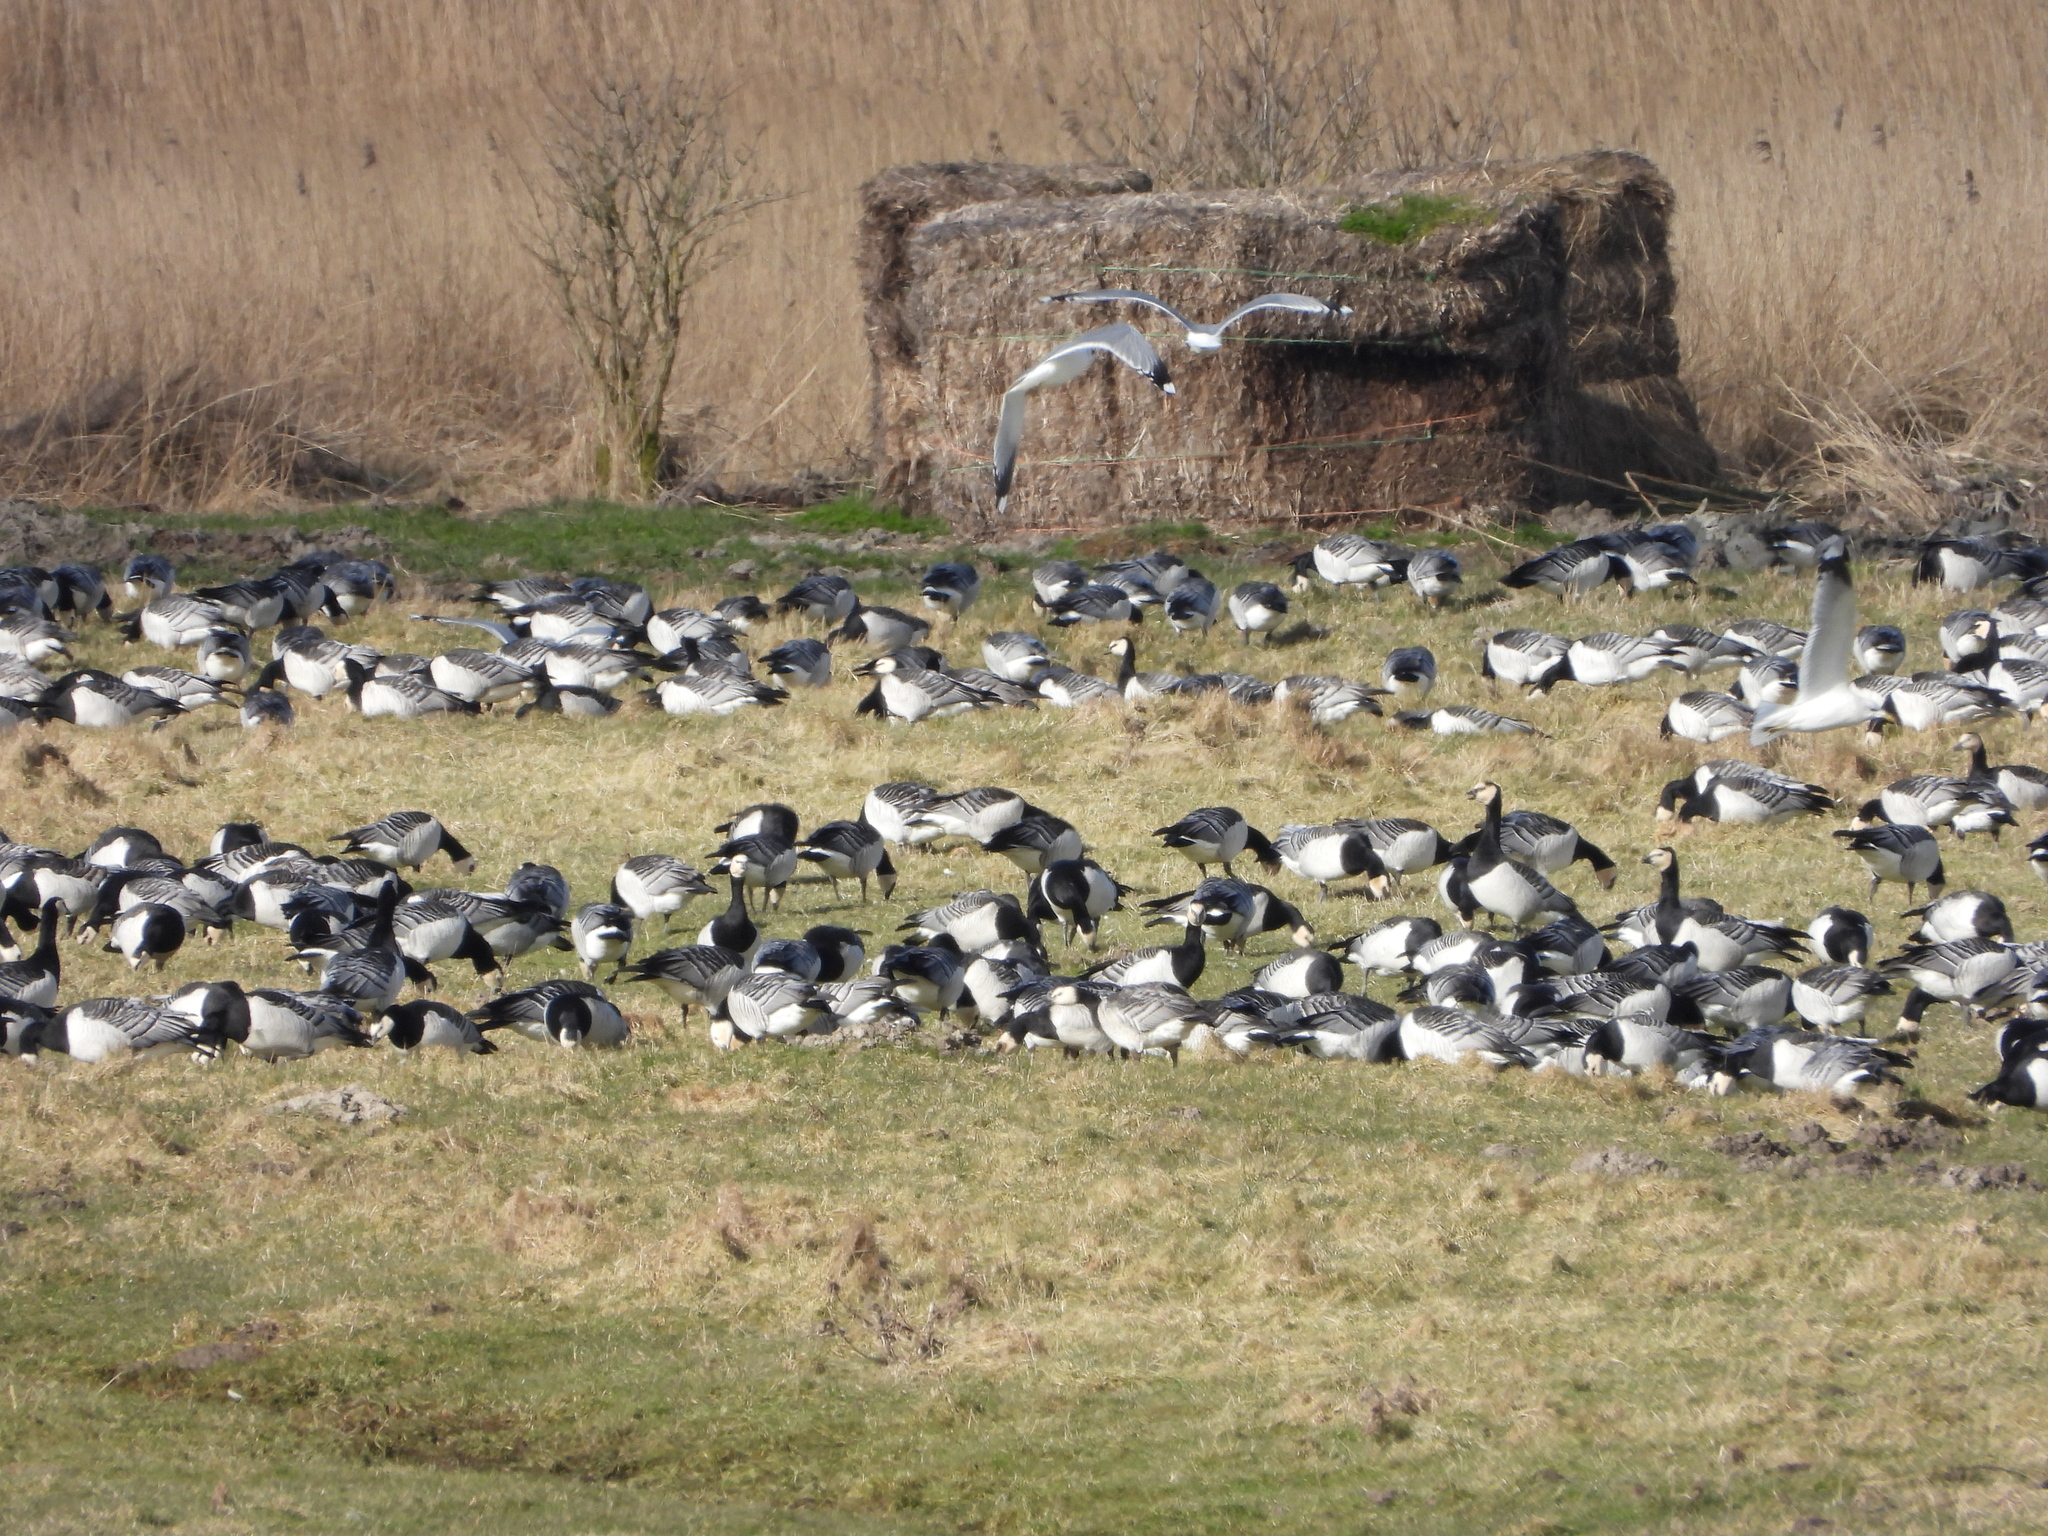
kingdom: Animalia
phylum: Chordata
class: Aves
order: Anseriformes
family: Anatidae
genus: Branta
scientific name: Branta leucopsis
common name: Barnacle goose
